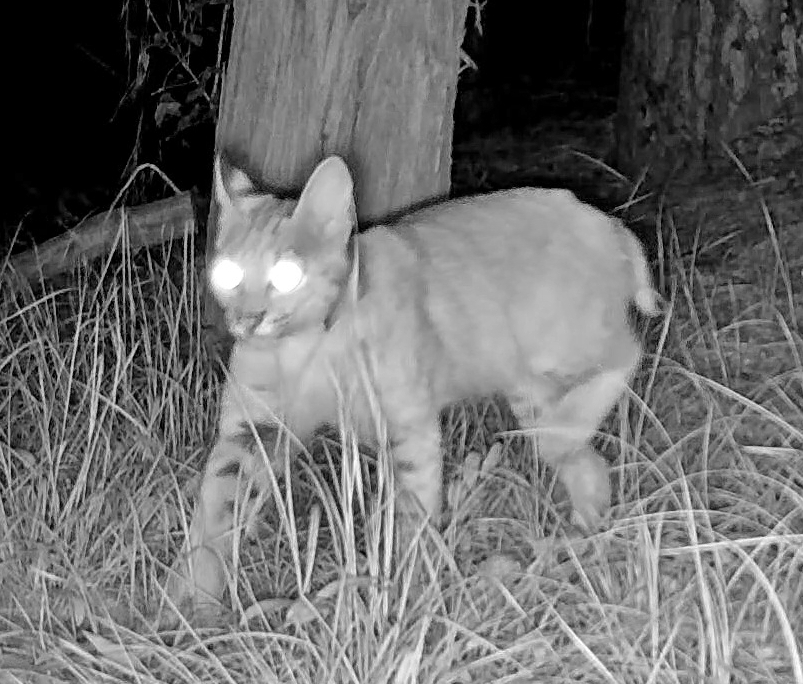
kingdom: Animalia
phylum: Chordata
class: Mammalia
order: Carnivora
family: Felidae
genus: Lynx
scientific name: Lynx rufus
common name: Bobcat
